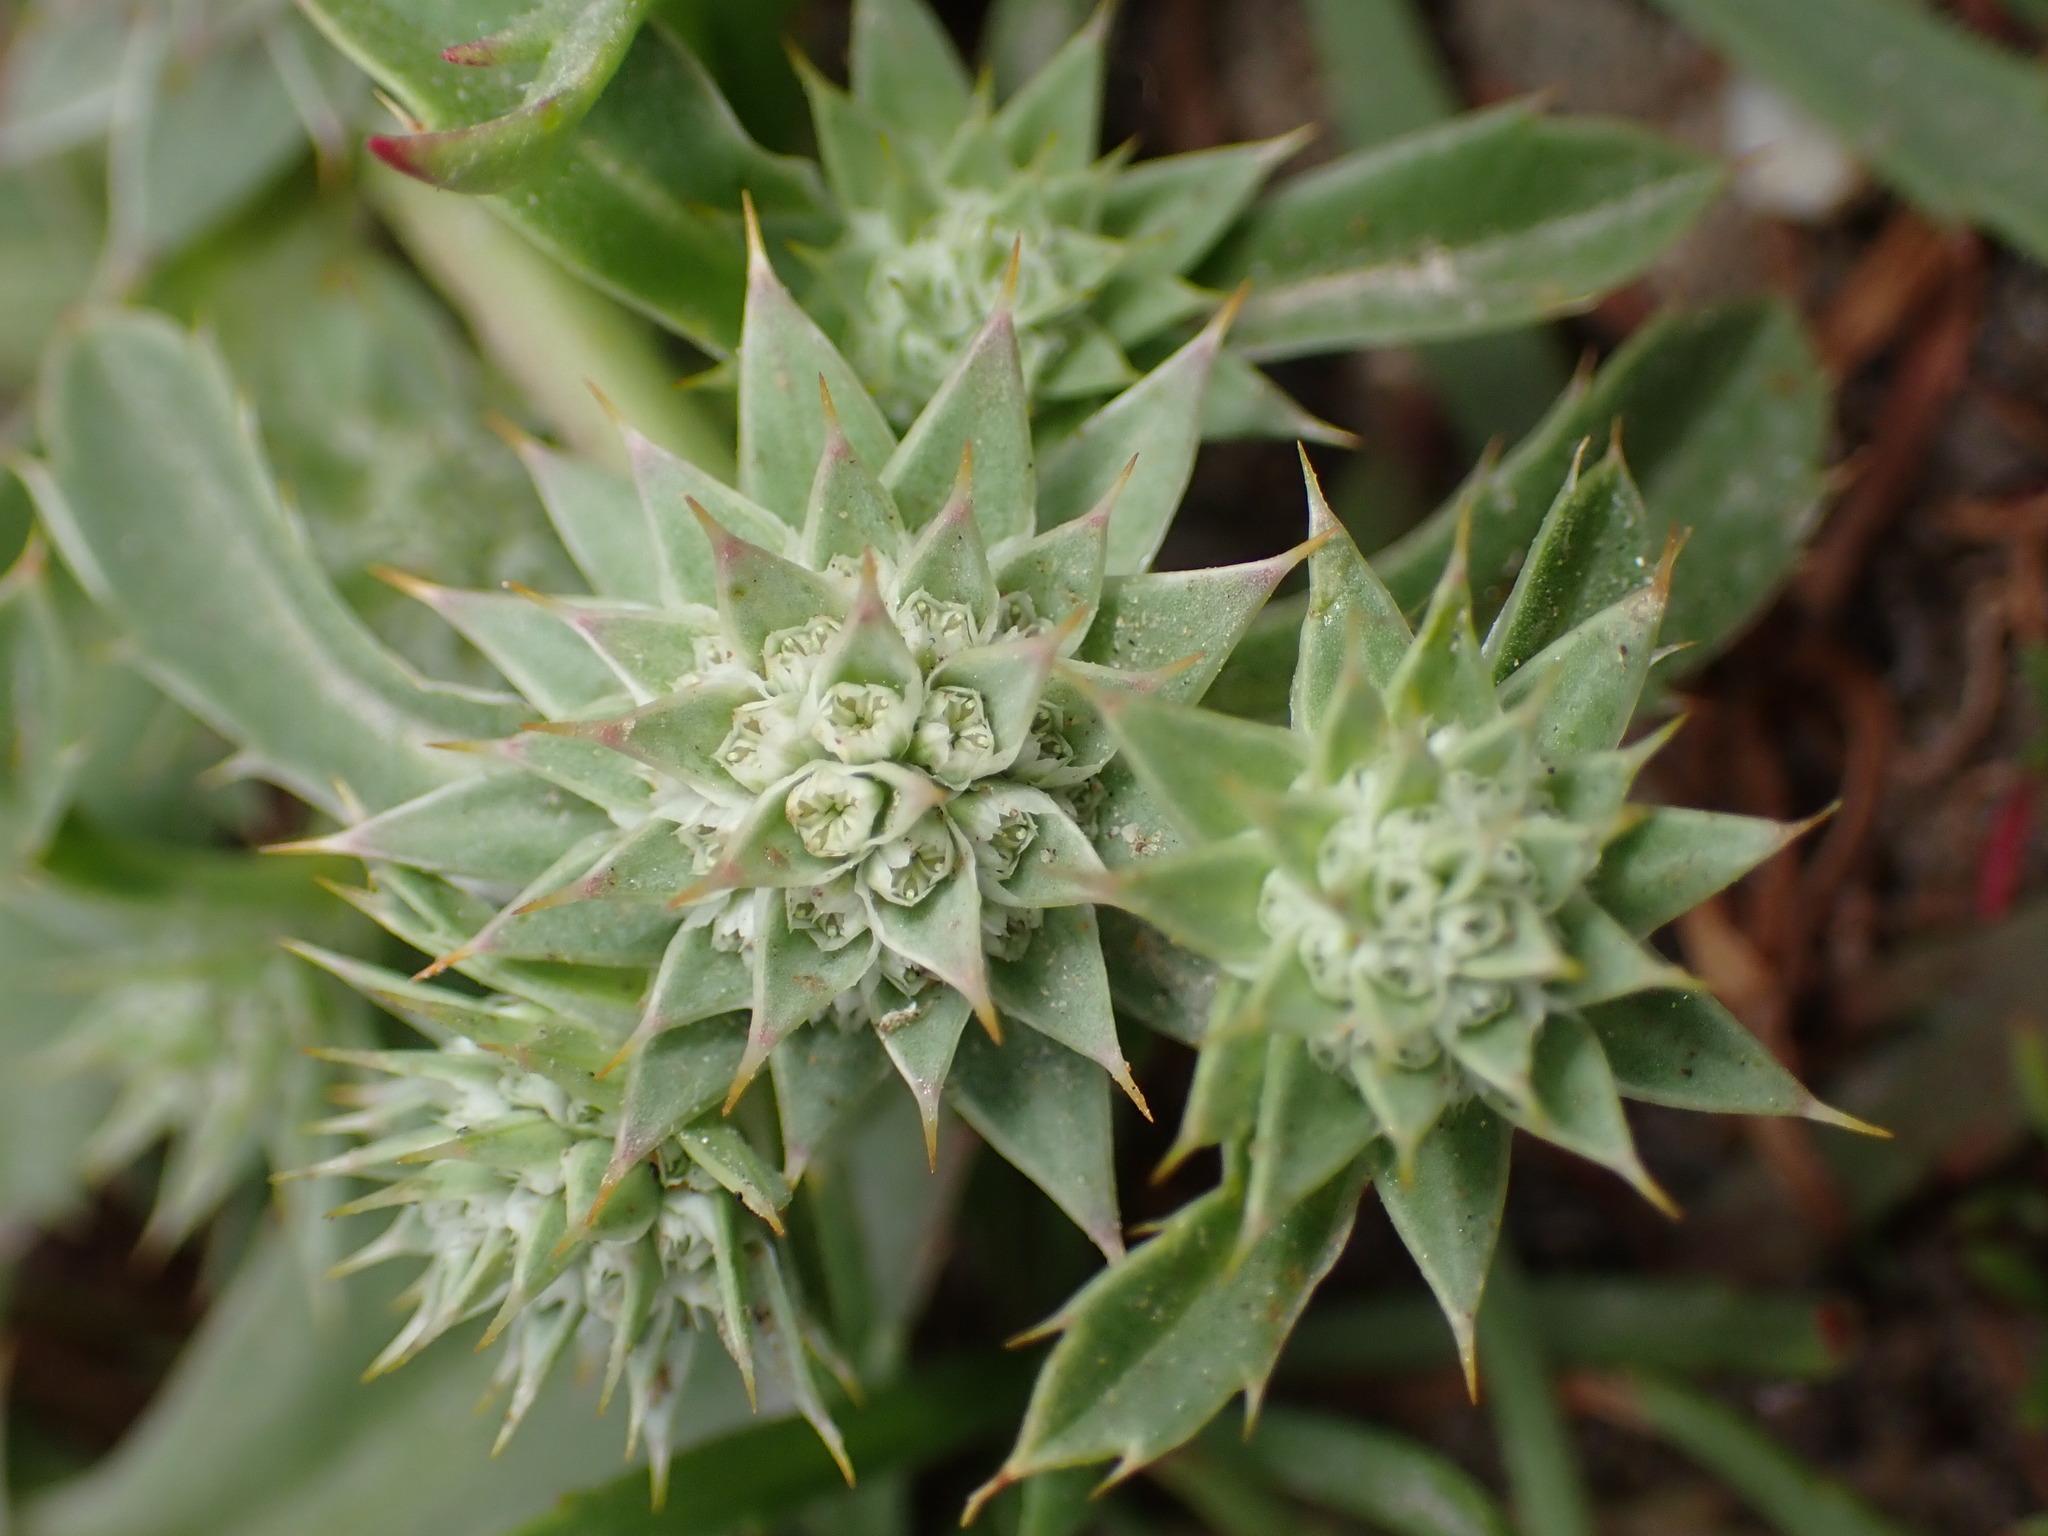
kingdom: Plantae
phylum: Tracheophyta
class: Magnoliopsida
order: Apiales
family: Apiaceae
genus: Eryngium
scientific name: Eryngium armatum
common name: Coyote thistle
